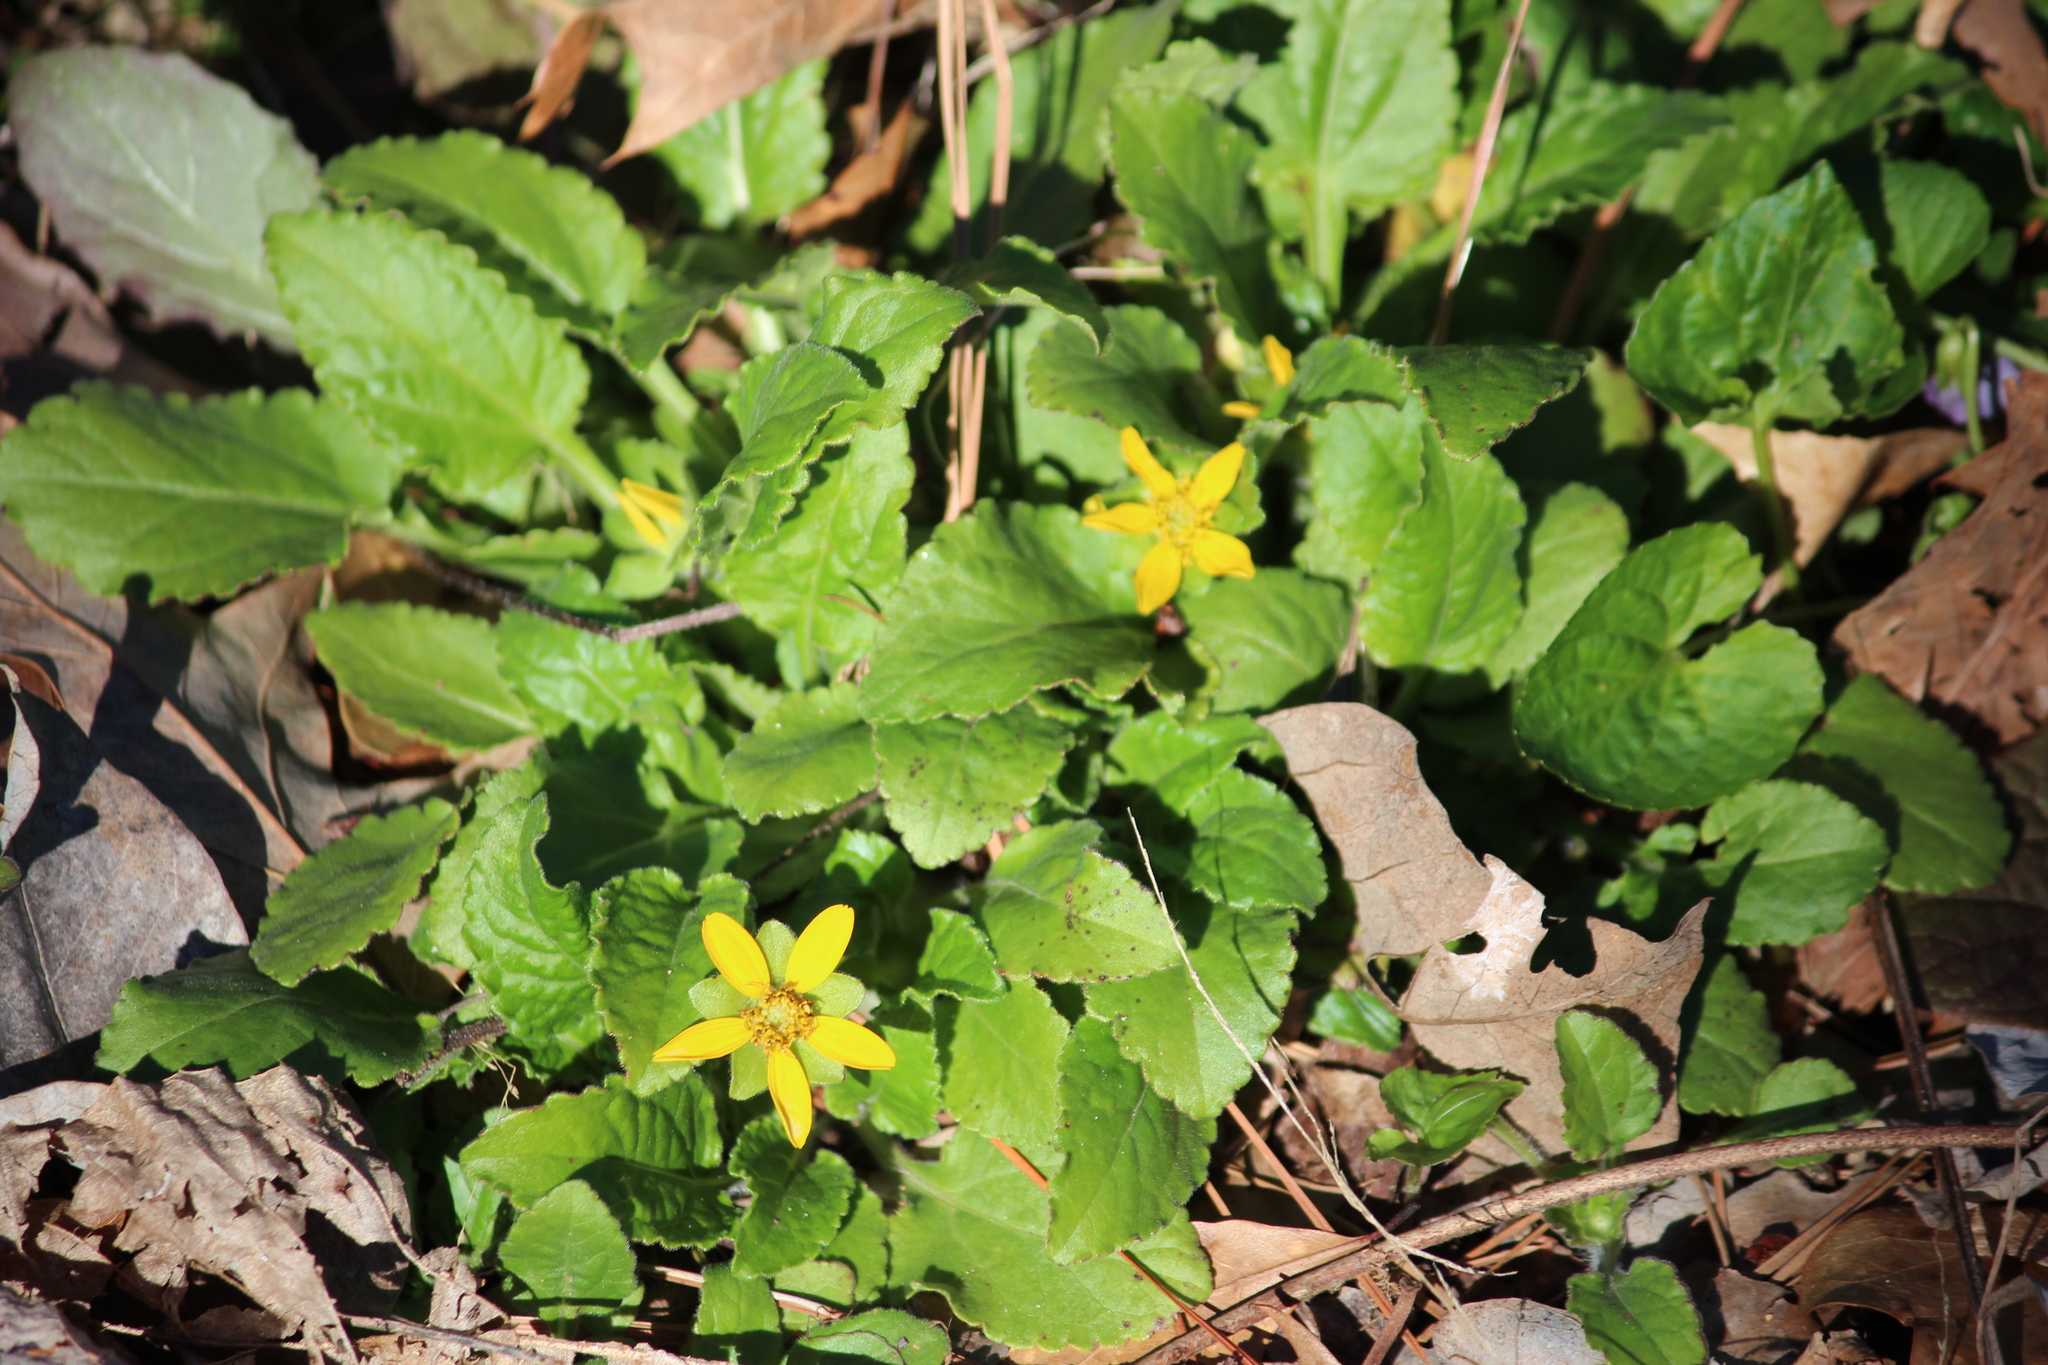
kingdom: Plantae
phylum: Tracheophyta
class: Magnoliopsida
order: Asterales
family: Asteraceae
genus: Chrysogonum
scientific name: Chrysogonum virginianum
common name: Golden-knee
